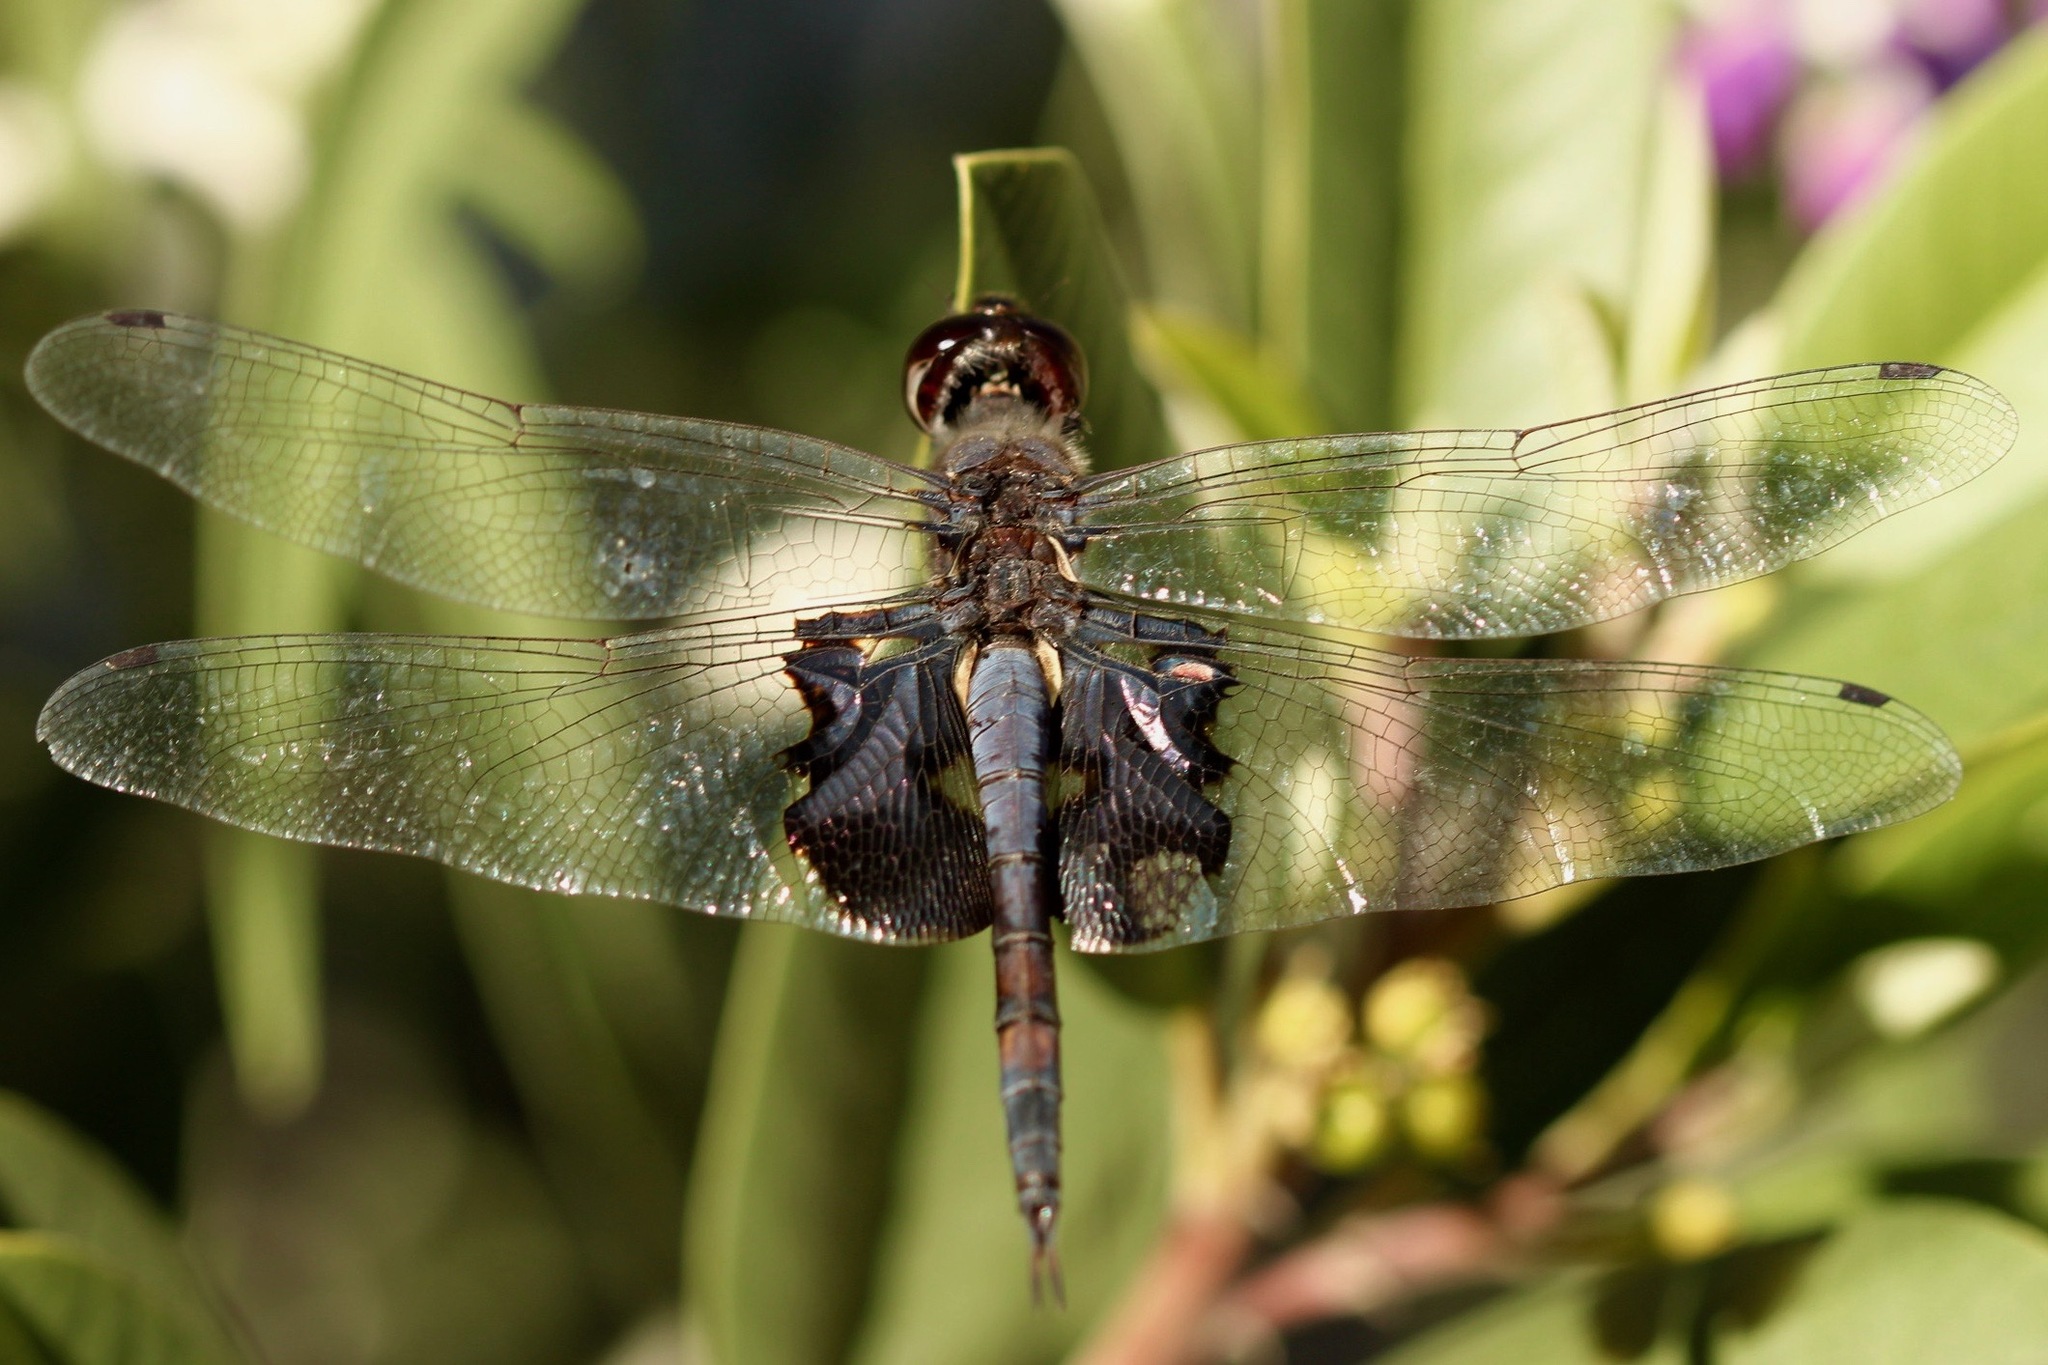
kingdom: Animalia
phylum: Arthropoda
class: Insecta
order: Odonata
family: Libellulidae
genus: Tramea
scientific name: Tramea lacerata
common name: Black saddlebags
